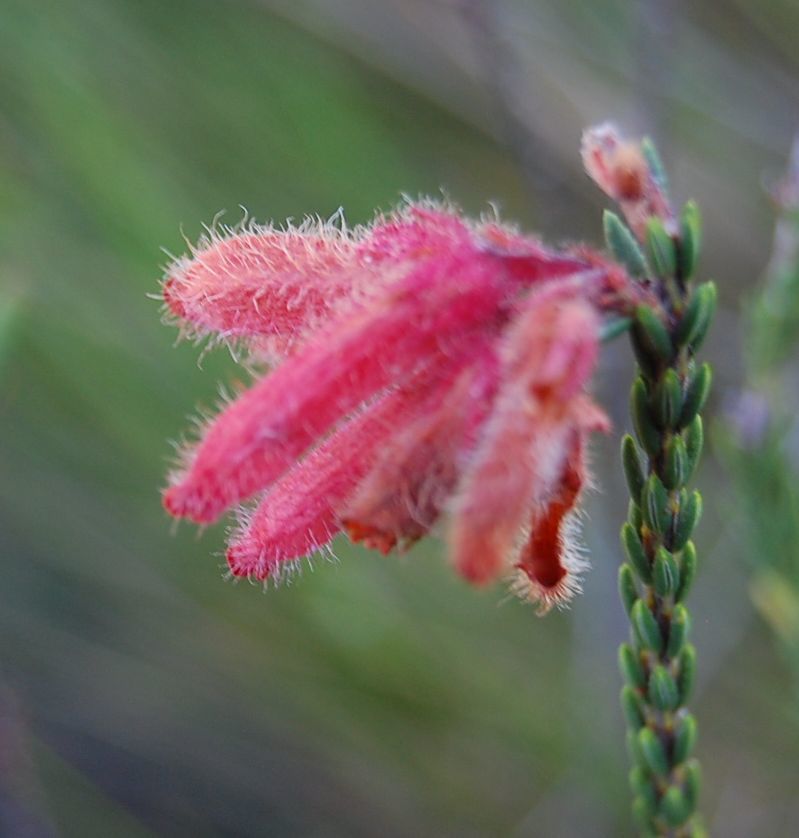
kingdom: Plantae
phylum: Tracheophyta
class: Magnoliopsida
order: Ericales
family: Ericaceae
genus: Erica
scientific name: Erica cerinthoides
